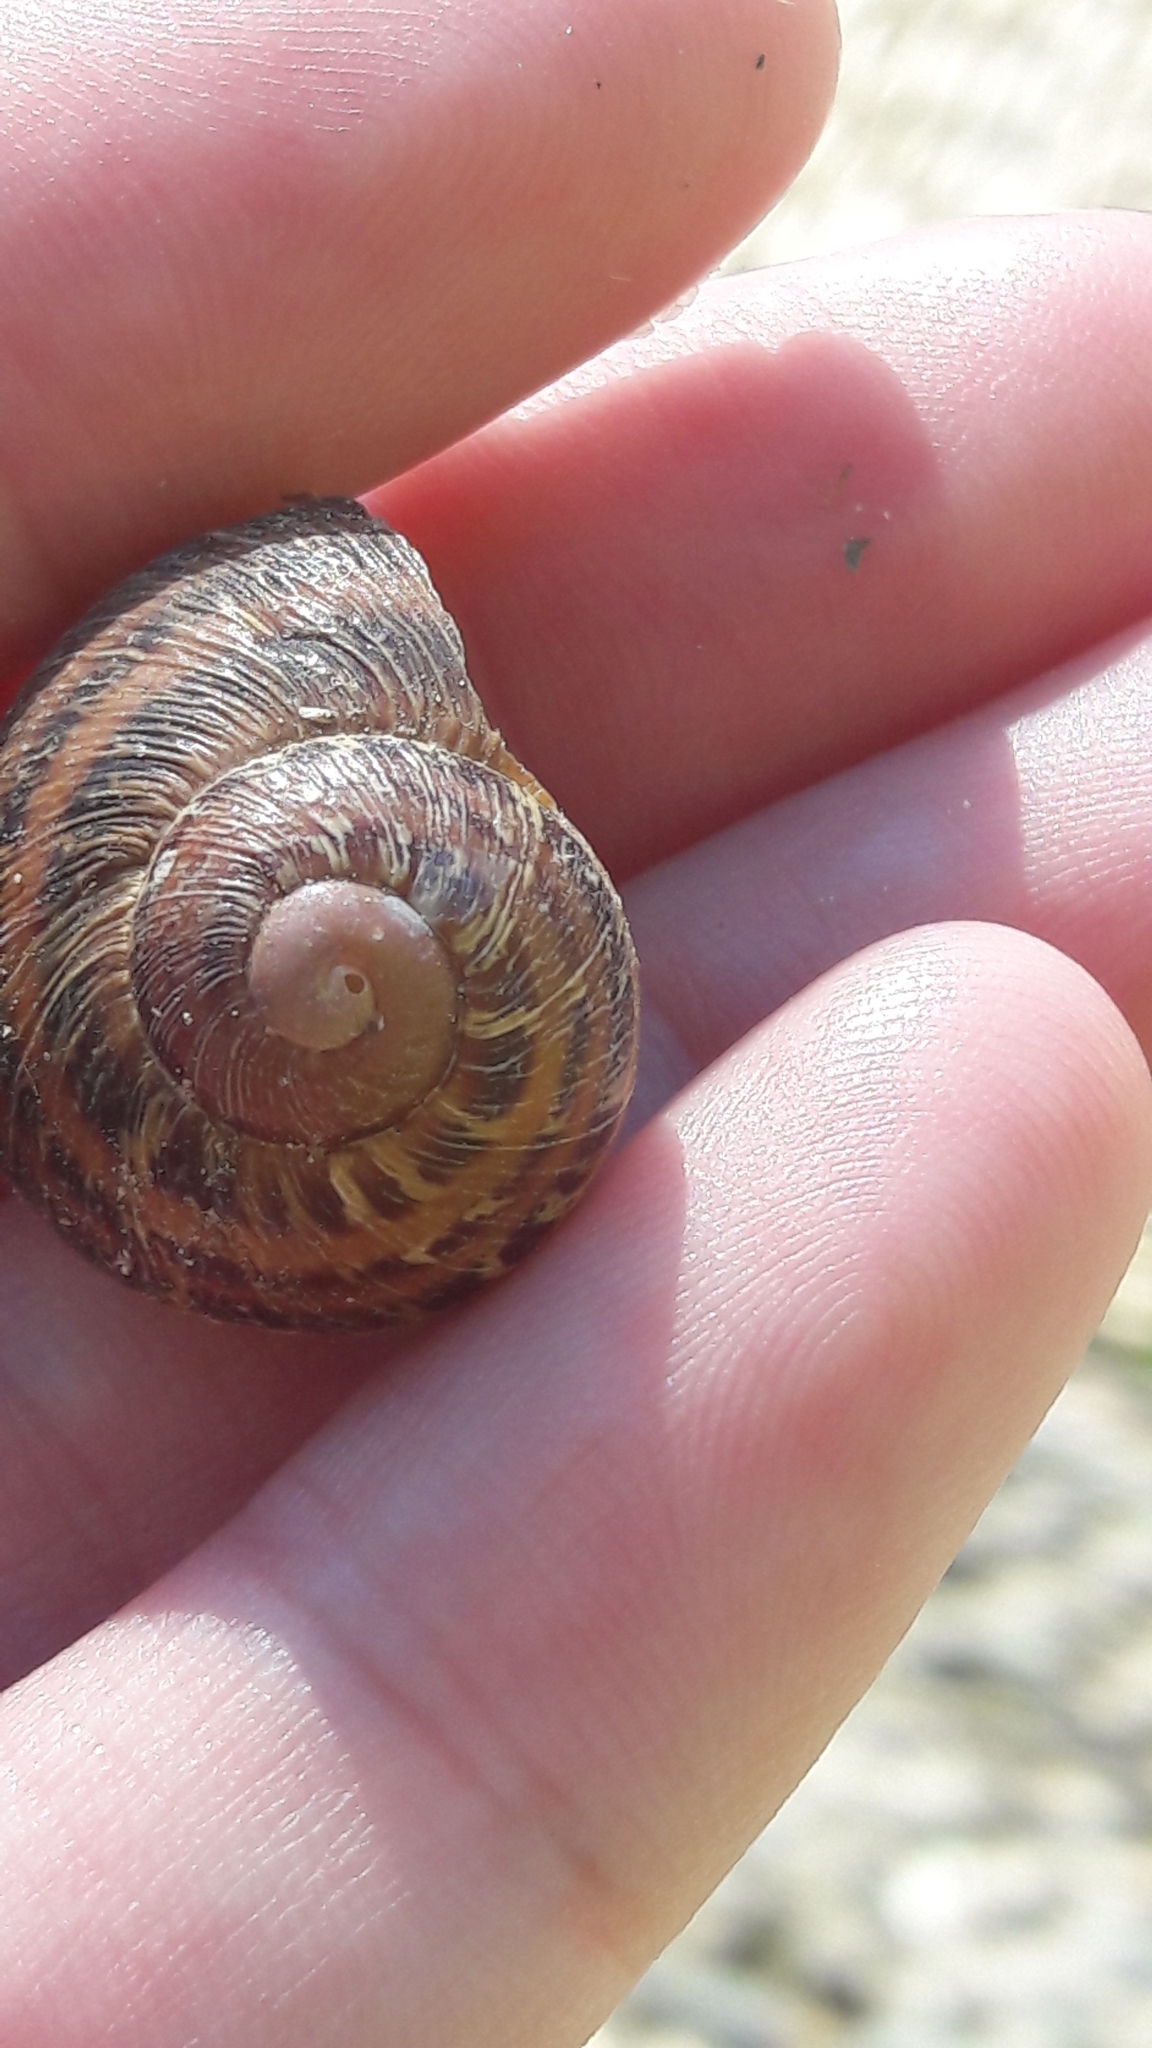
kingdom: Animalia
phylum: Mollusca
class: Gastropoda
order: Stylommatophora
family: Helicidae
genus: Cornu
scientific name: Cornu aspersum
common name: Brown garden snail
